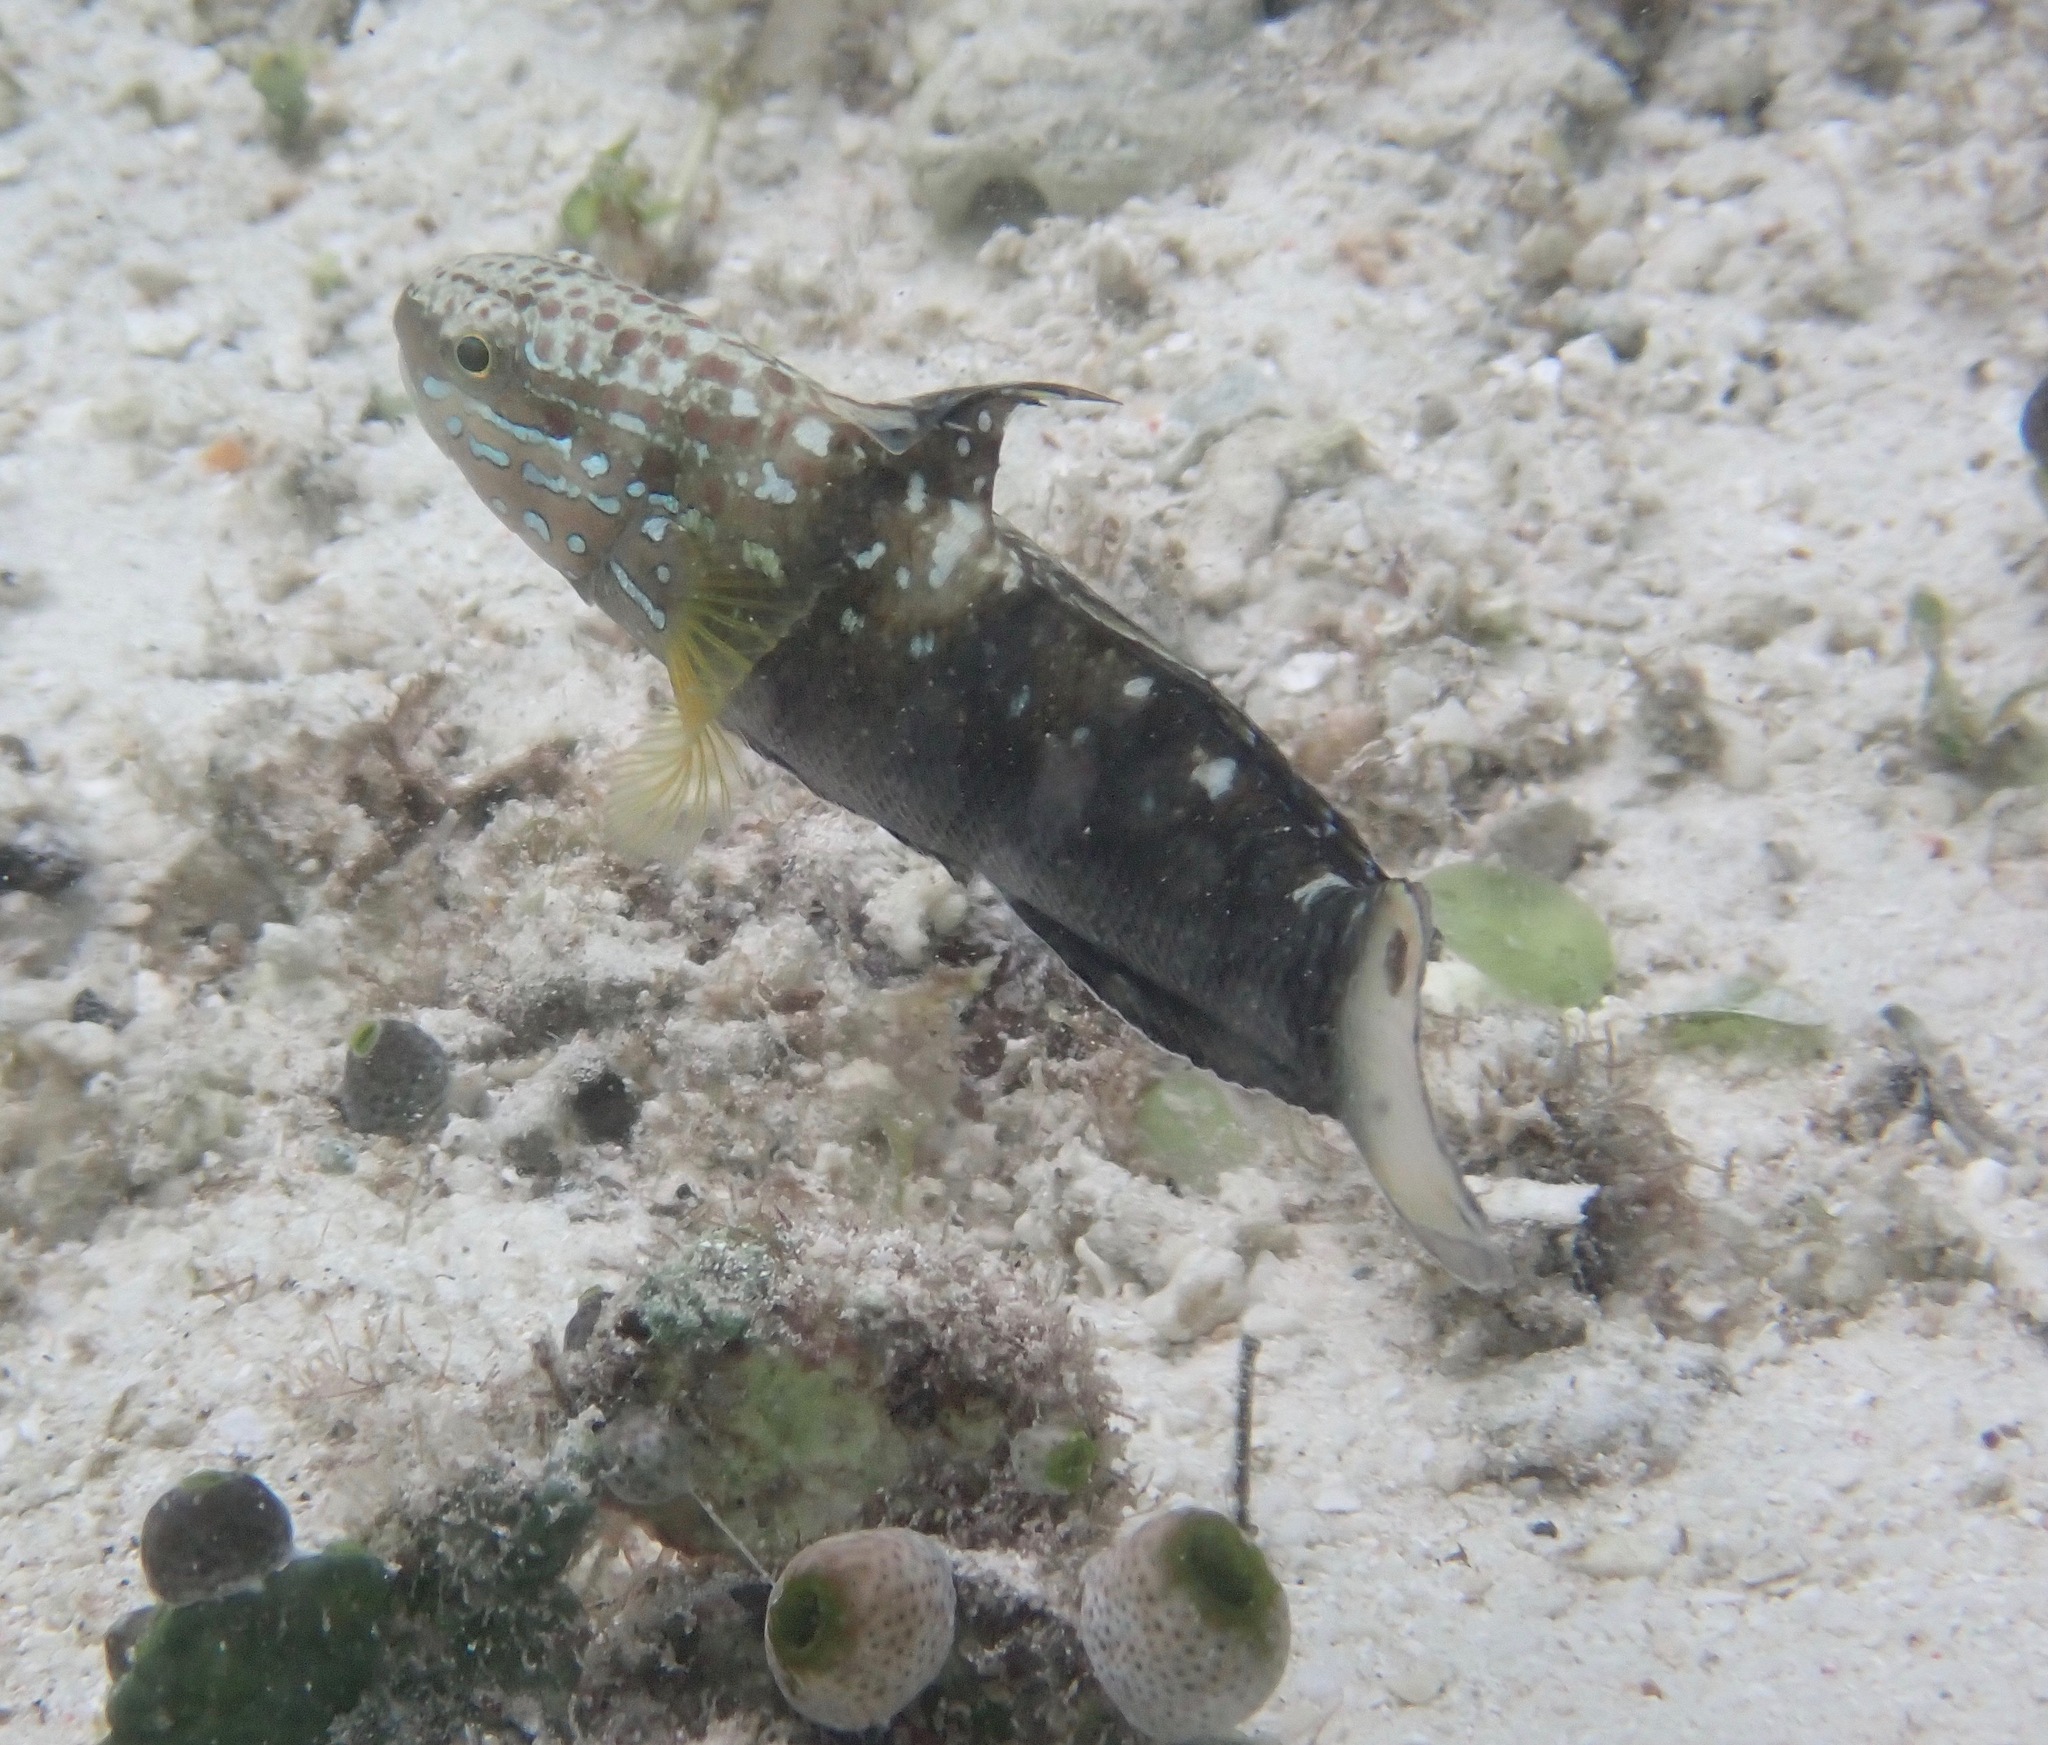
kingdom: Animalia
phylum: Chordata
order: Perciformes
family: Gobiidae
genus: Amblygobius
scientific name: Amblygobius phalaena
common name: Banded goby
